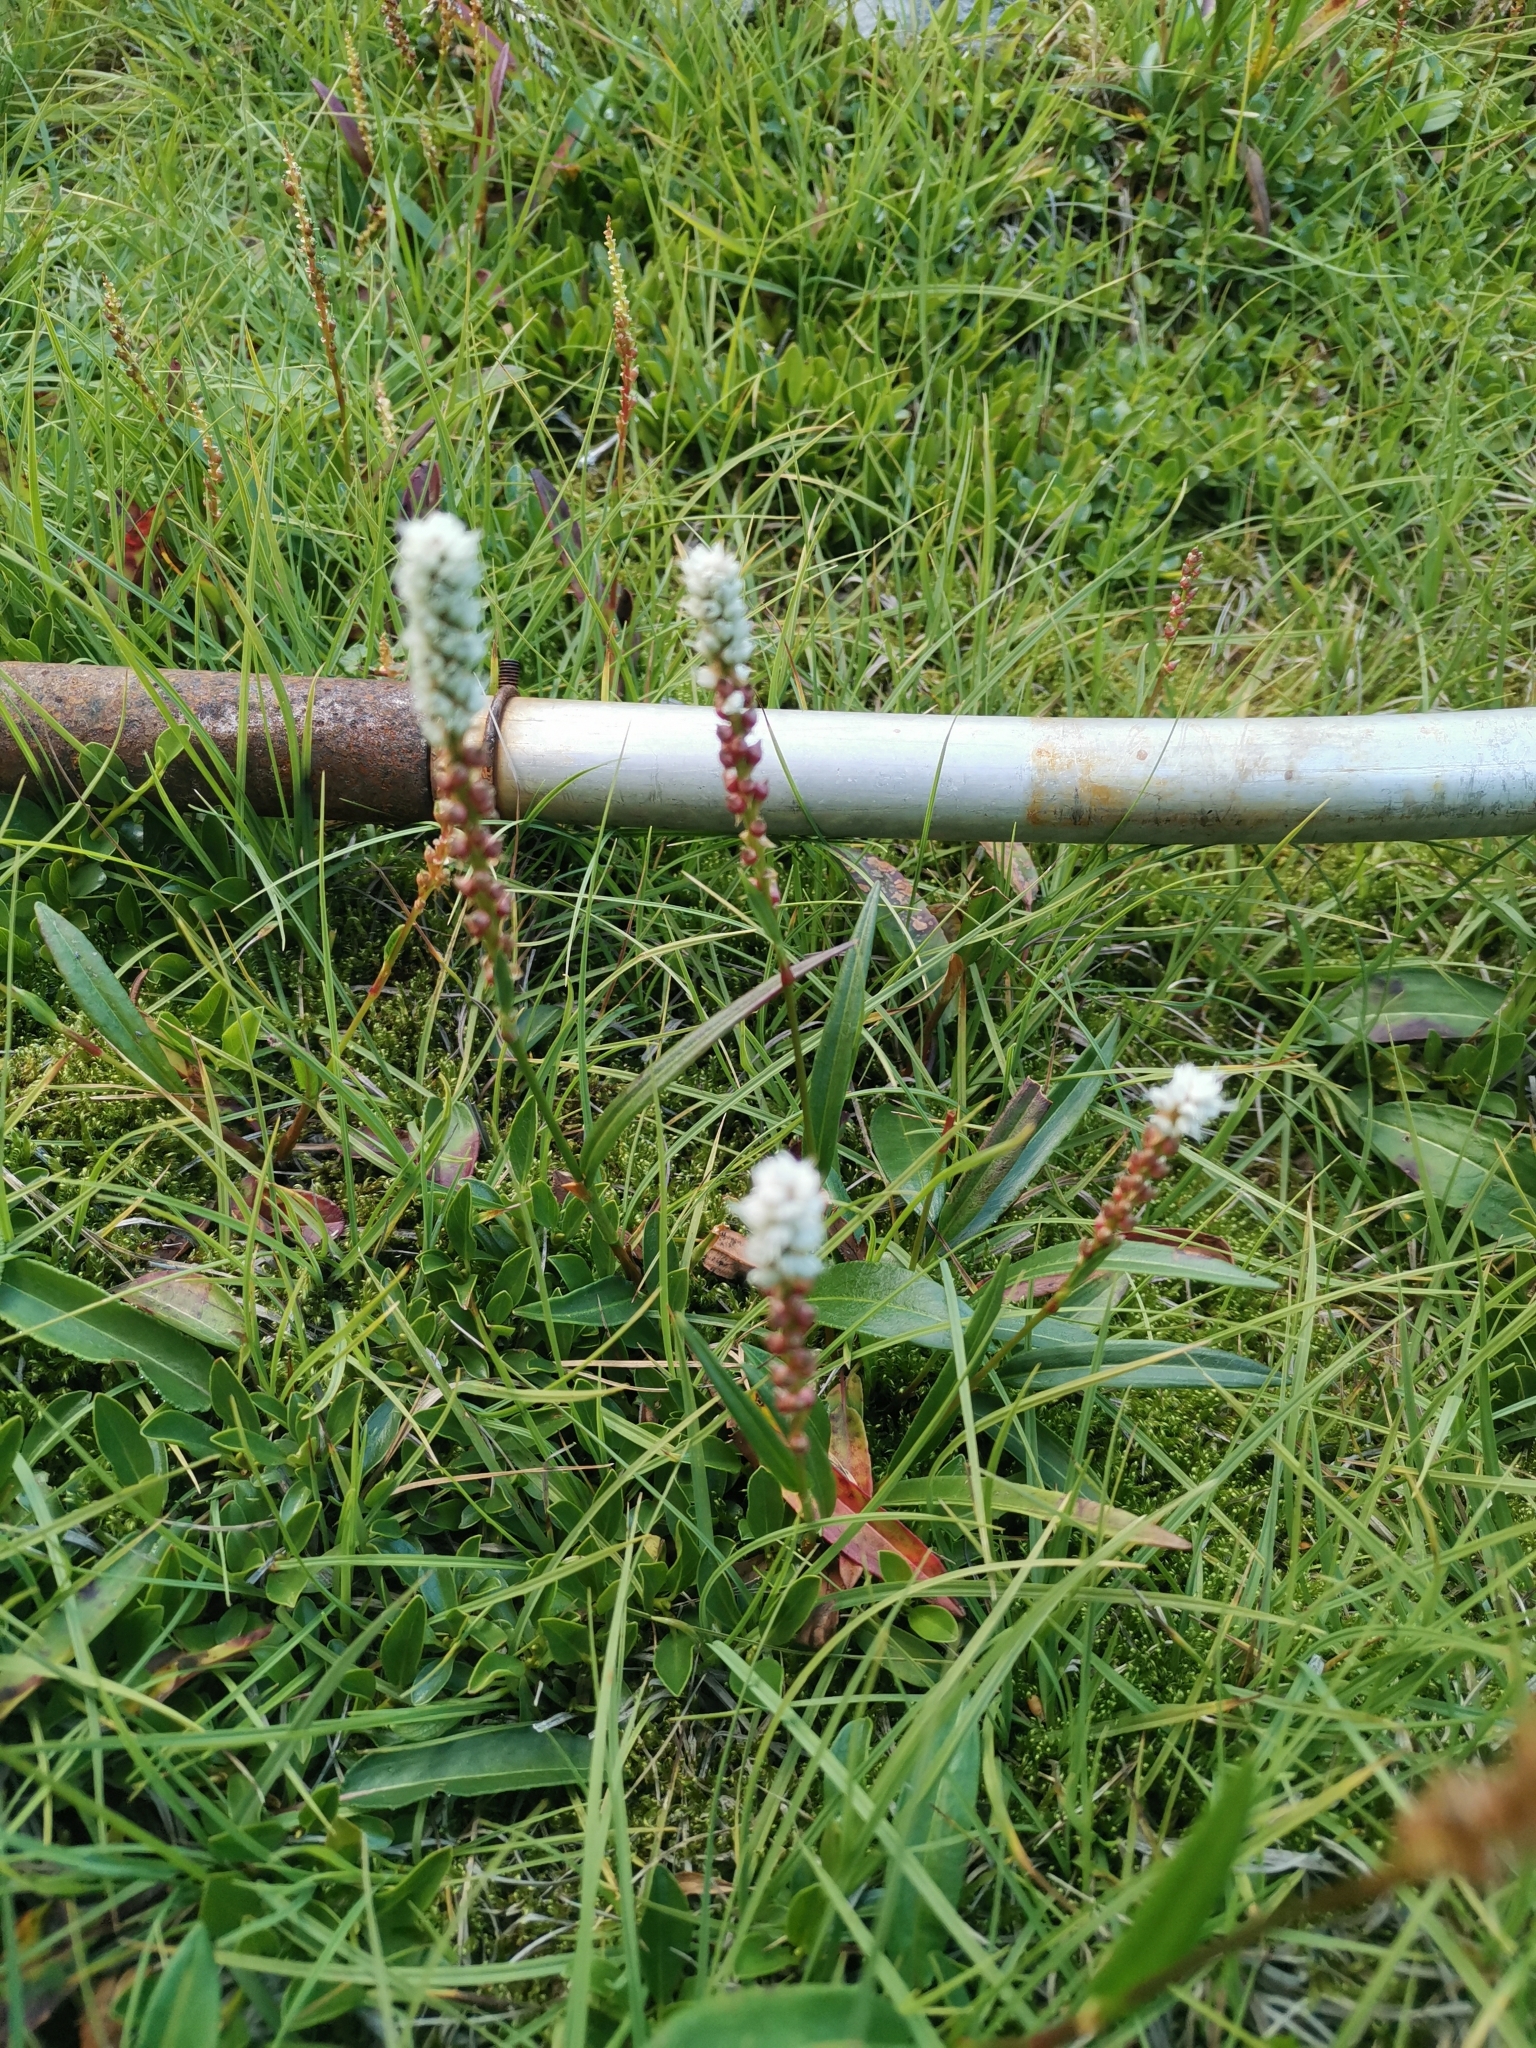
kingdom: Plantae
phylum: Tracheophyta
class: Magnoliopsida
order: Caryophyllales
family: Polygonaceae
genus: Bistorta
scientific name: Bistorta vivipara
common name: Alpine bistort
